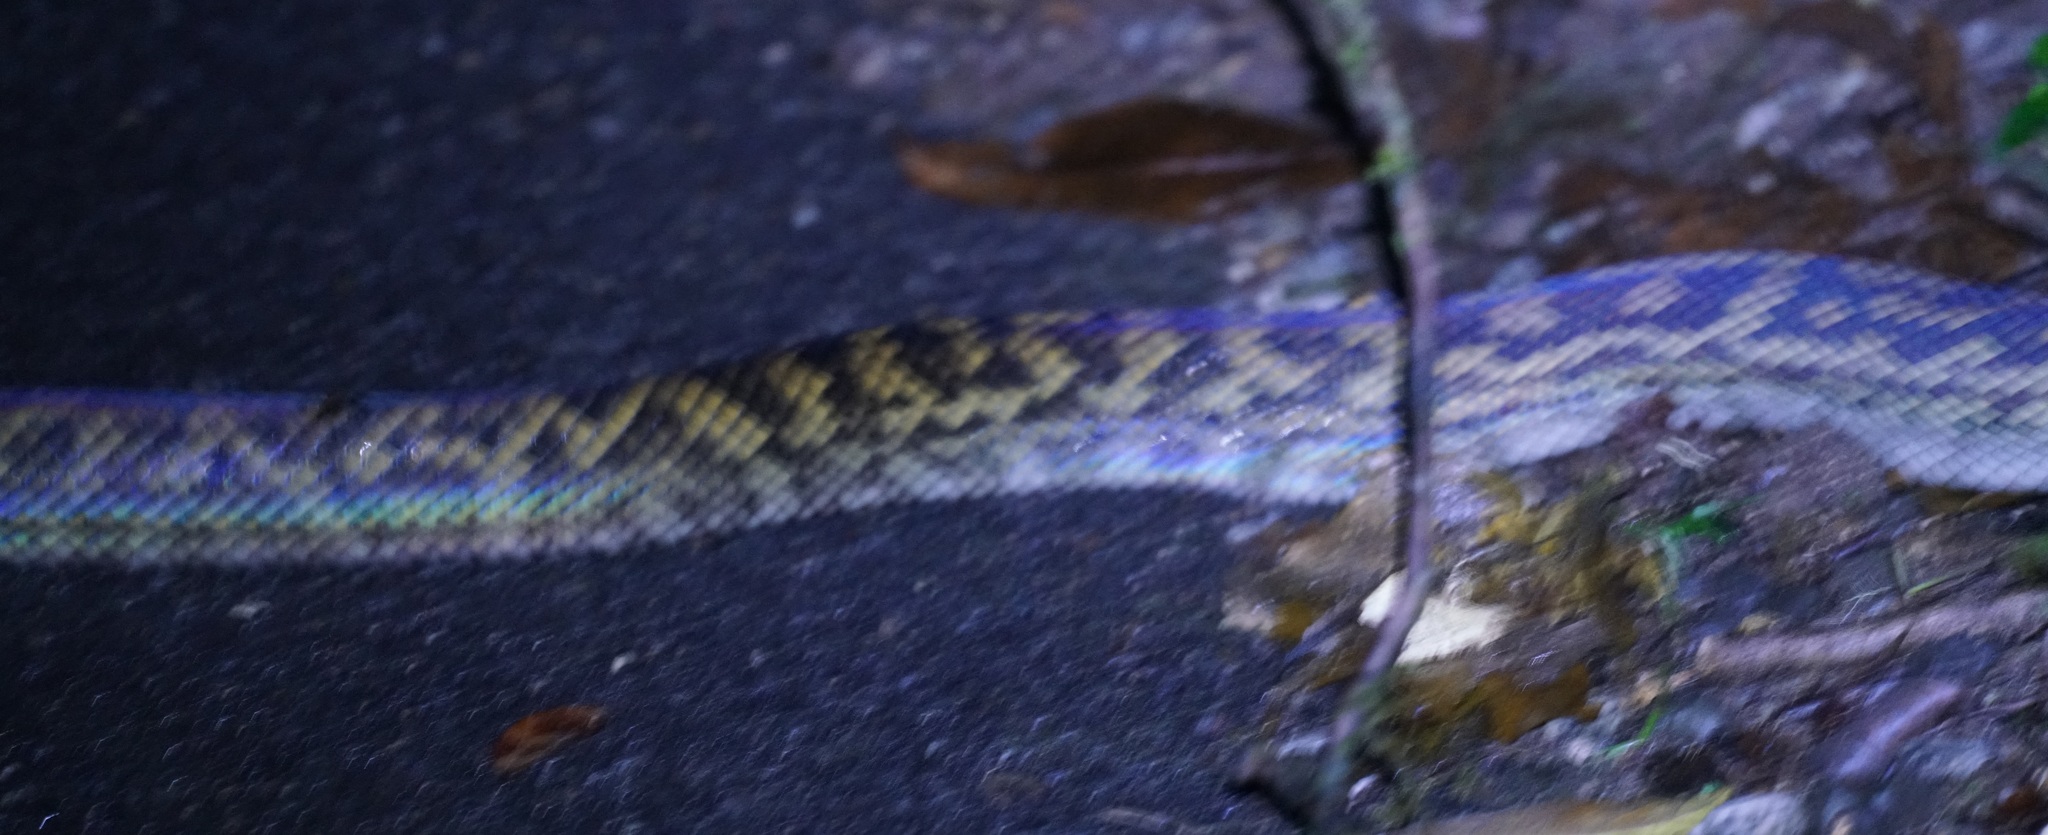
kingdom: Animalia
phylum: Chordata
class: Squamata
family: Pythonidae
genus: Simalia
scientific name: Simalia kinghorni
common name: Scrub python
